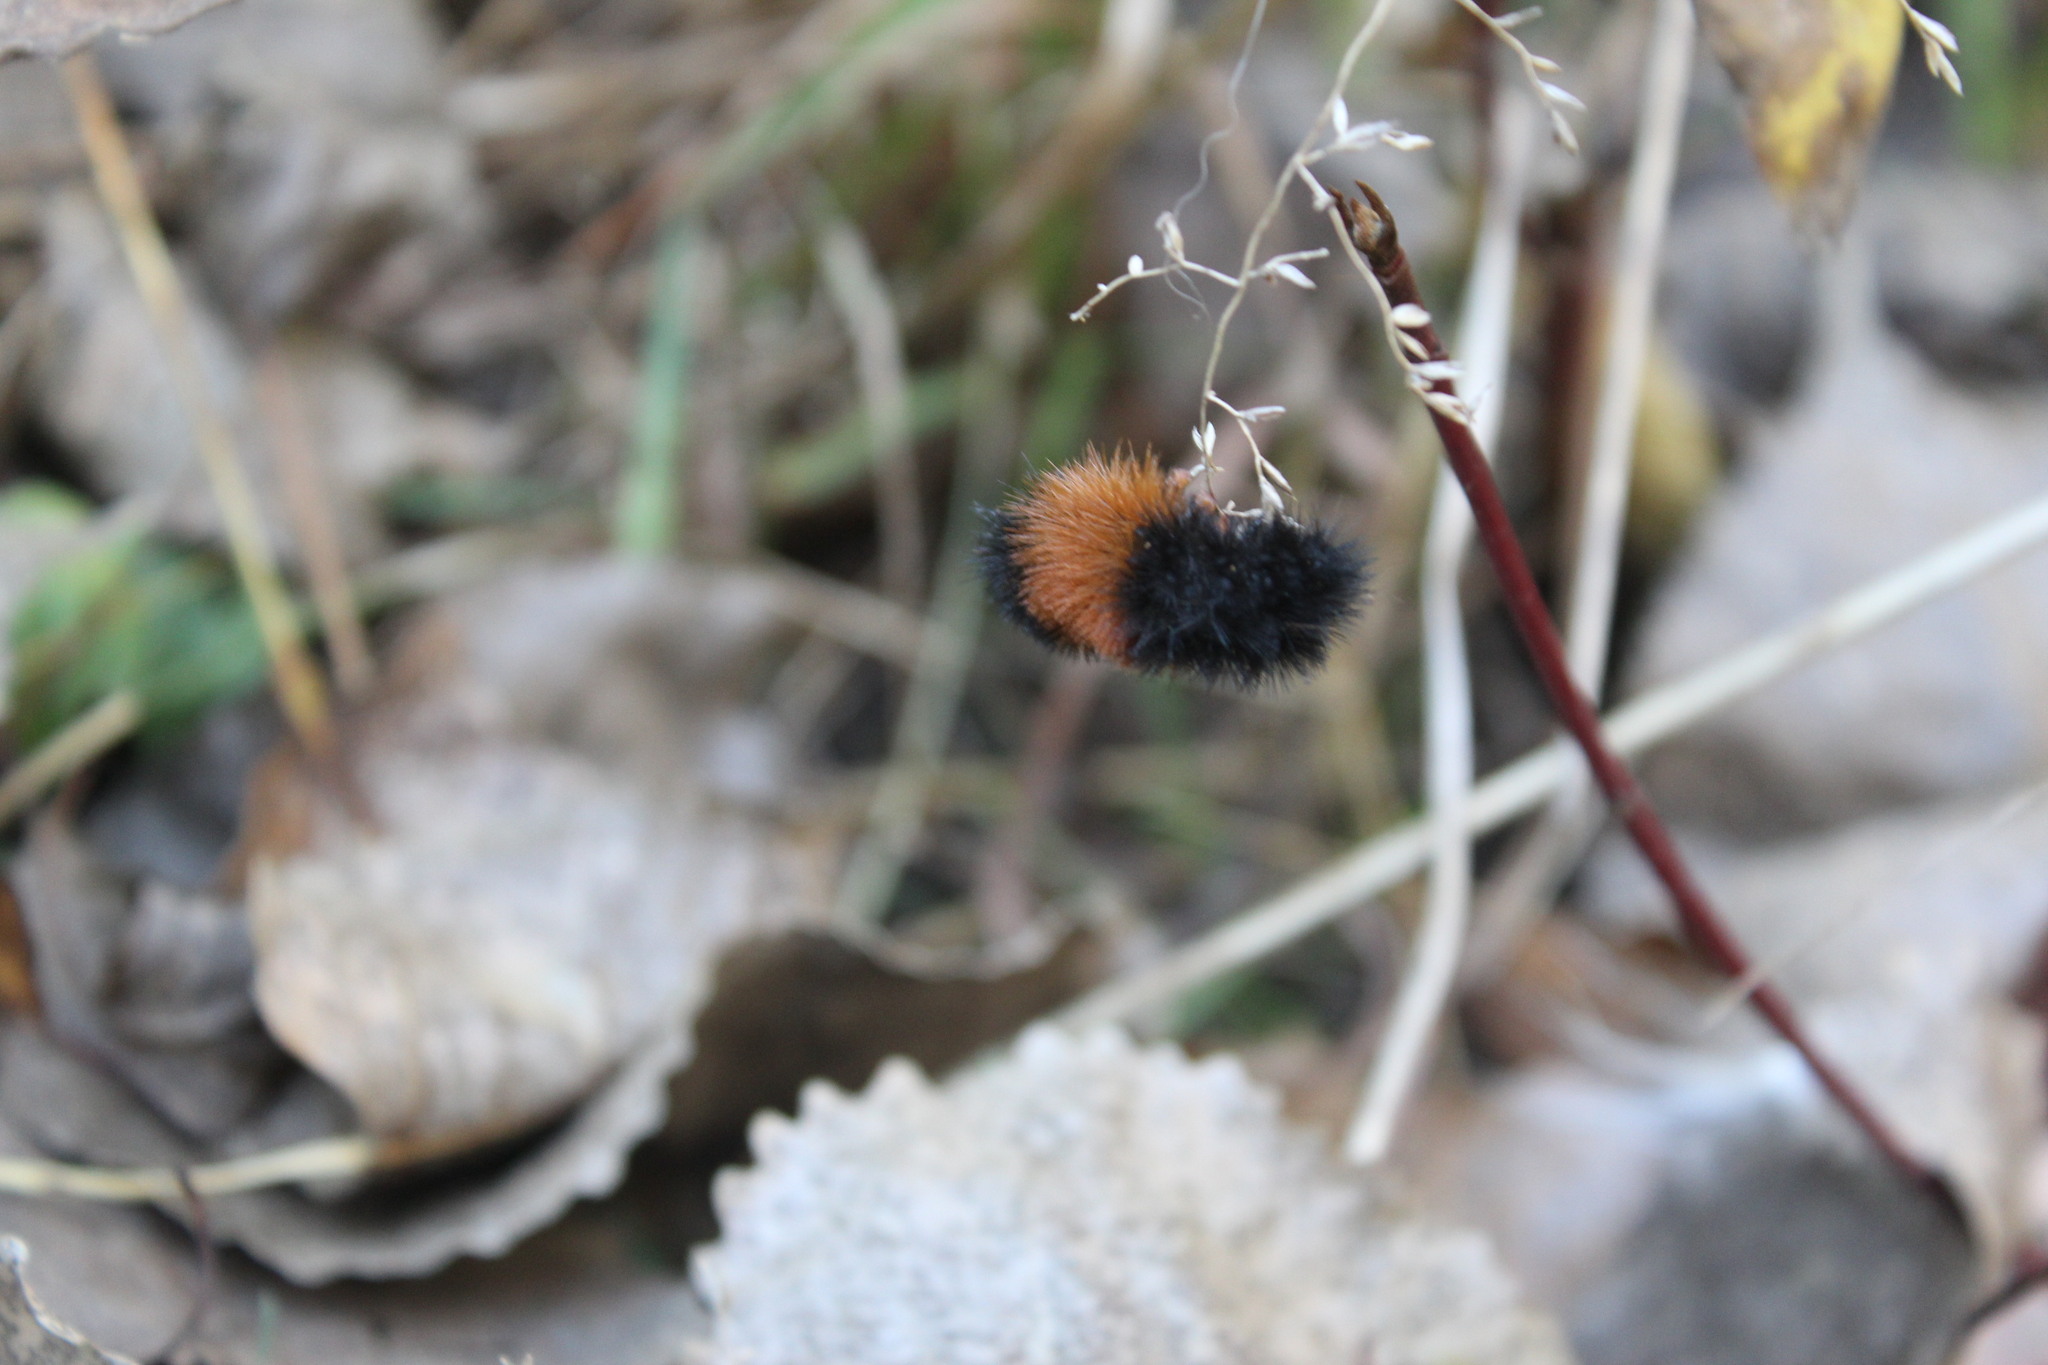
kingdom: Animalia
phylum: Arthropoda
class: Insecta
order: Lepidoptera
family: Erebidae
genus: Pyrrharctia
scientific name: Pyrrharctia isabella
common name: Isabella tiger moth
